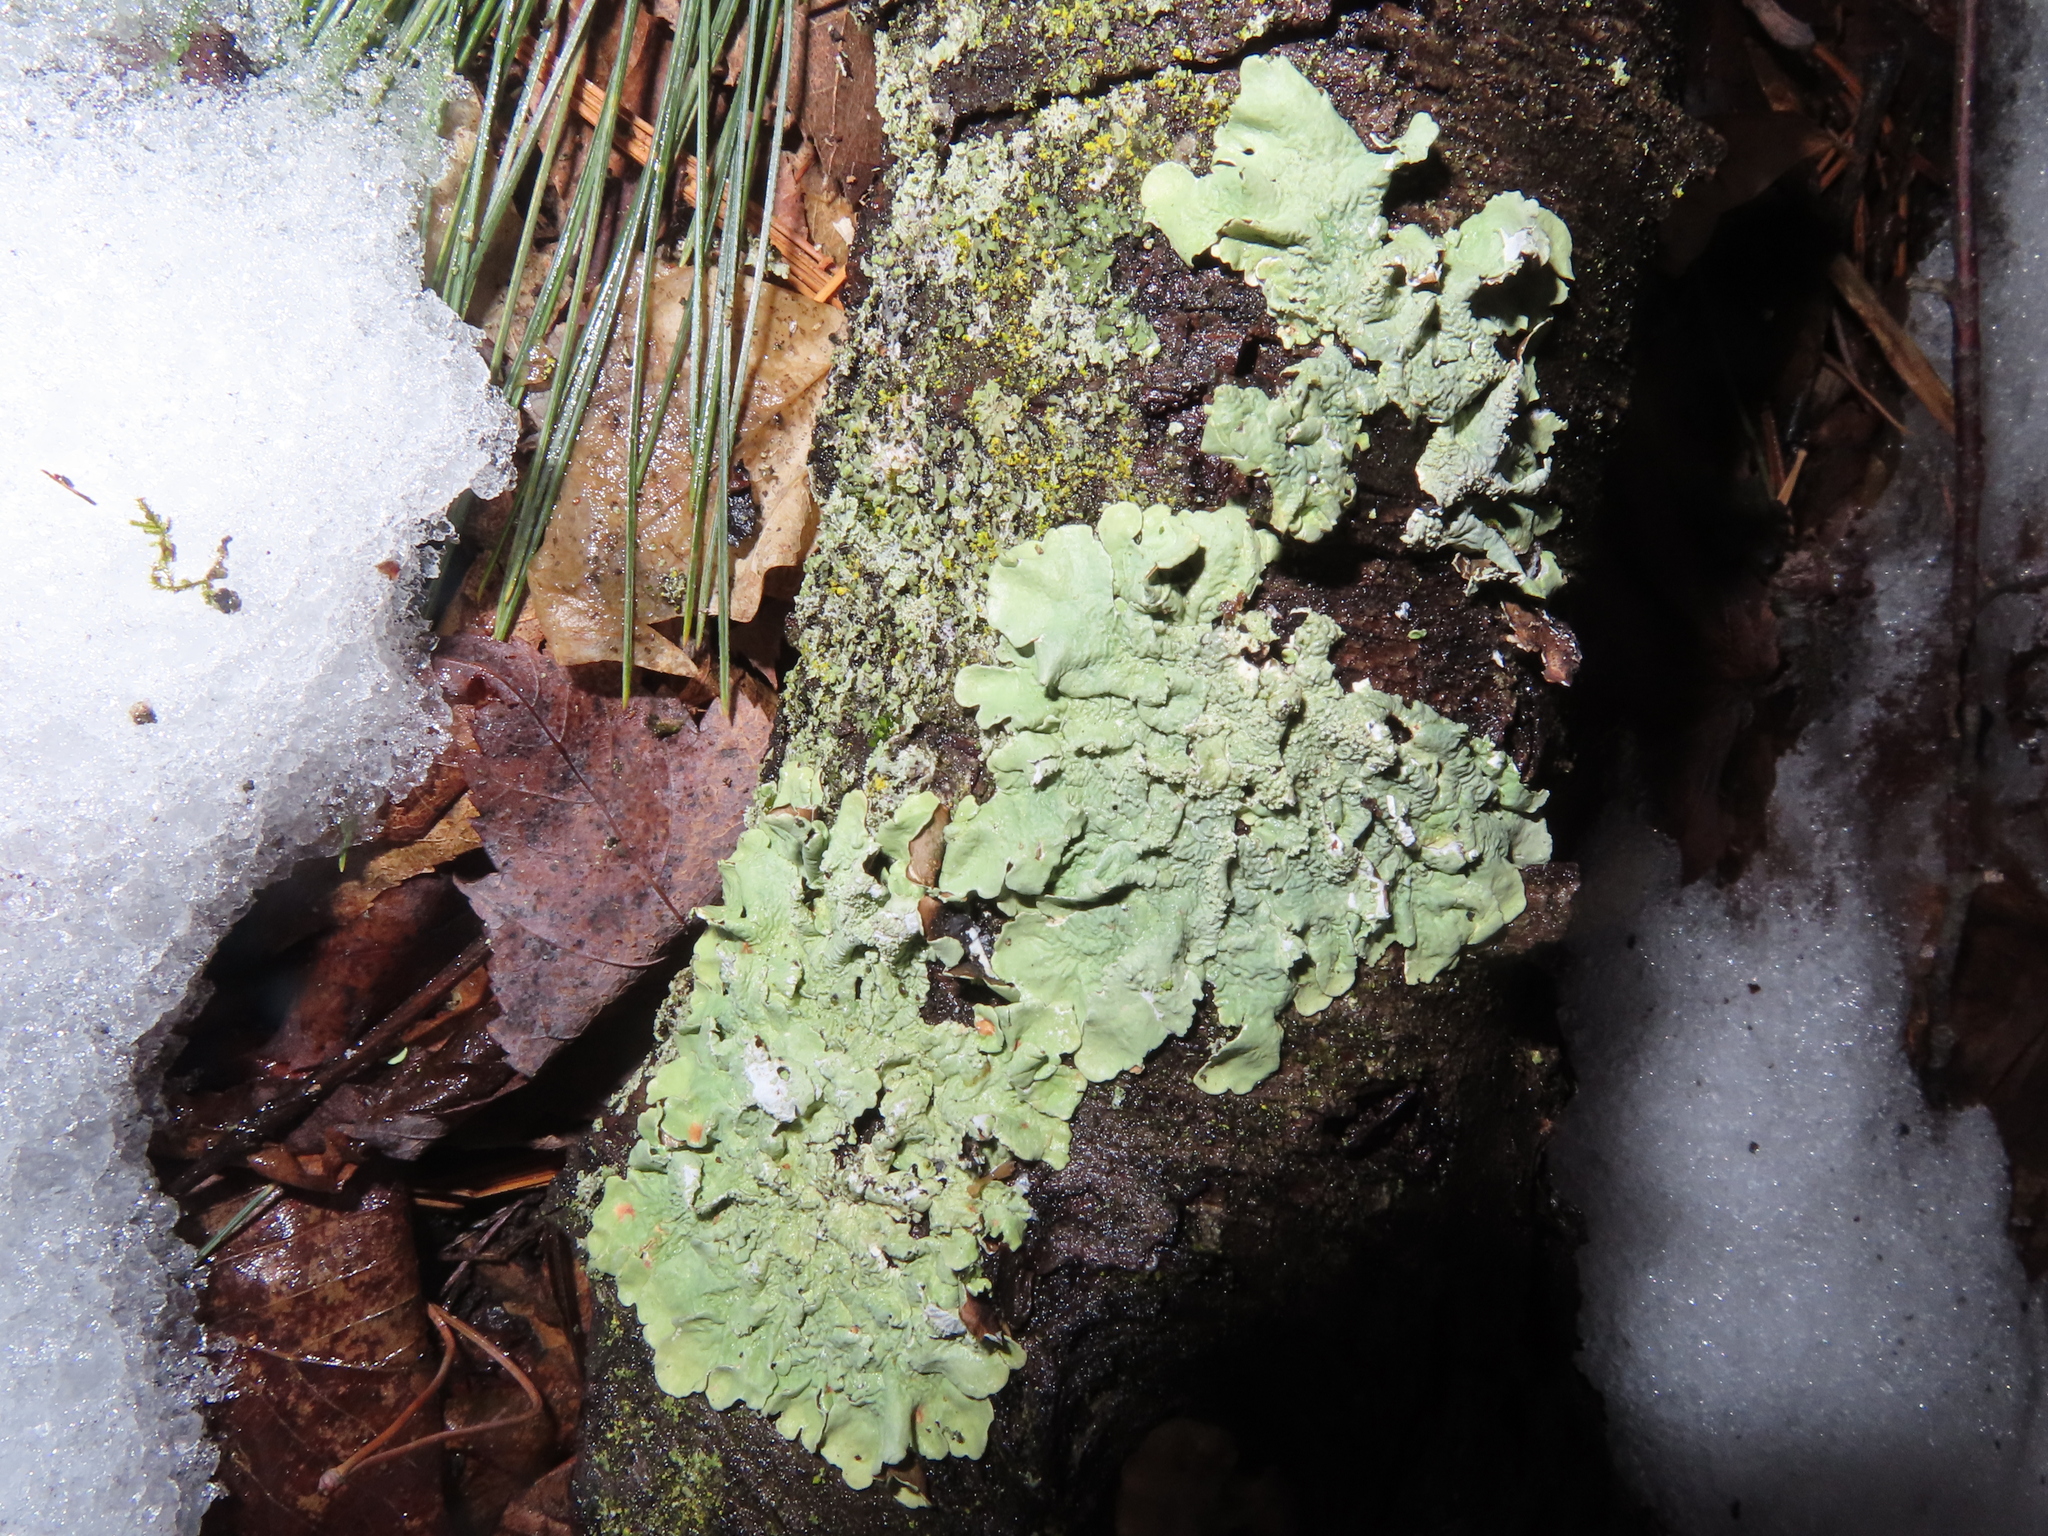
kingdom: Fungi
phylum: Ascomycota
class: Lecanoromycetes
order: Lecanorales
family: Parmeliaceae
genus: Flavoparmelia
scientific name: Flavoparmelia caperata
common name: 40-mile per hour lichen
